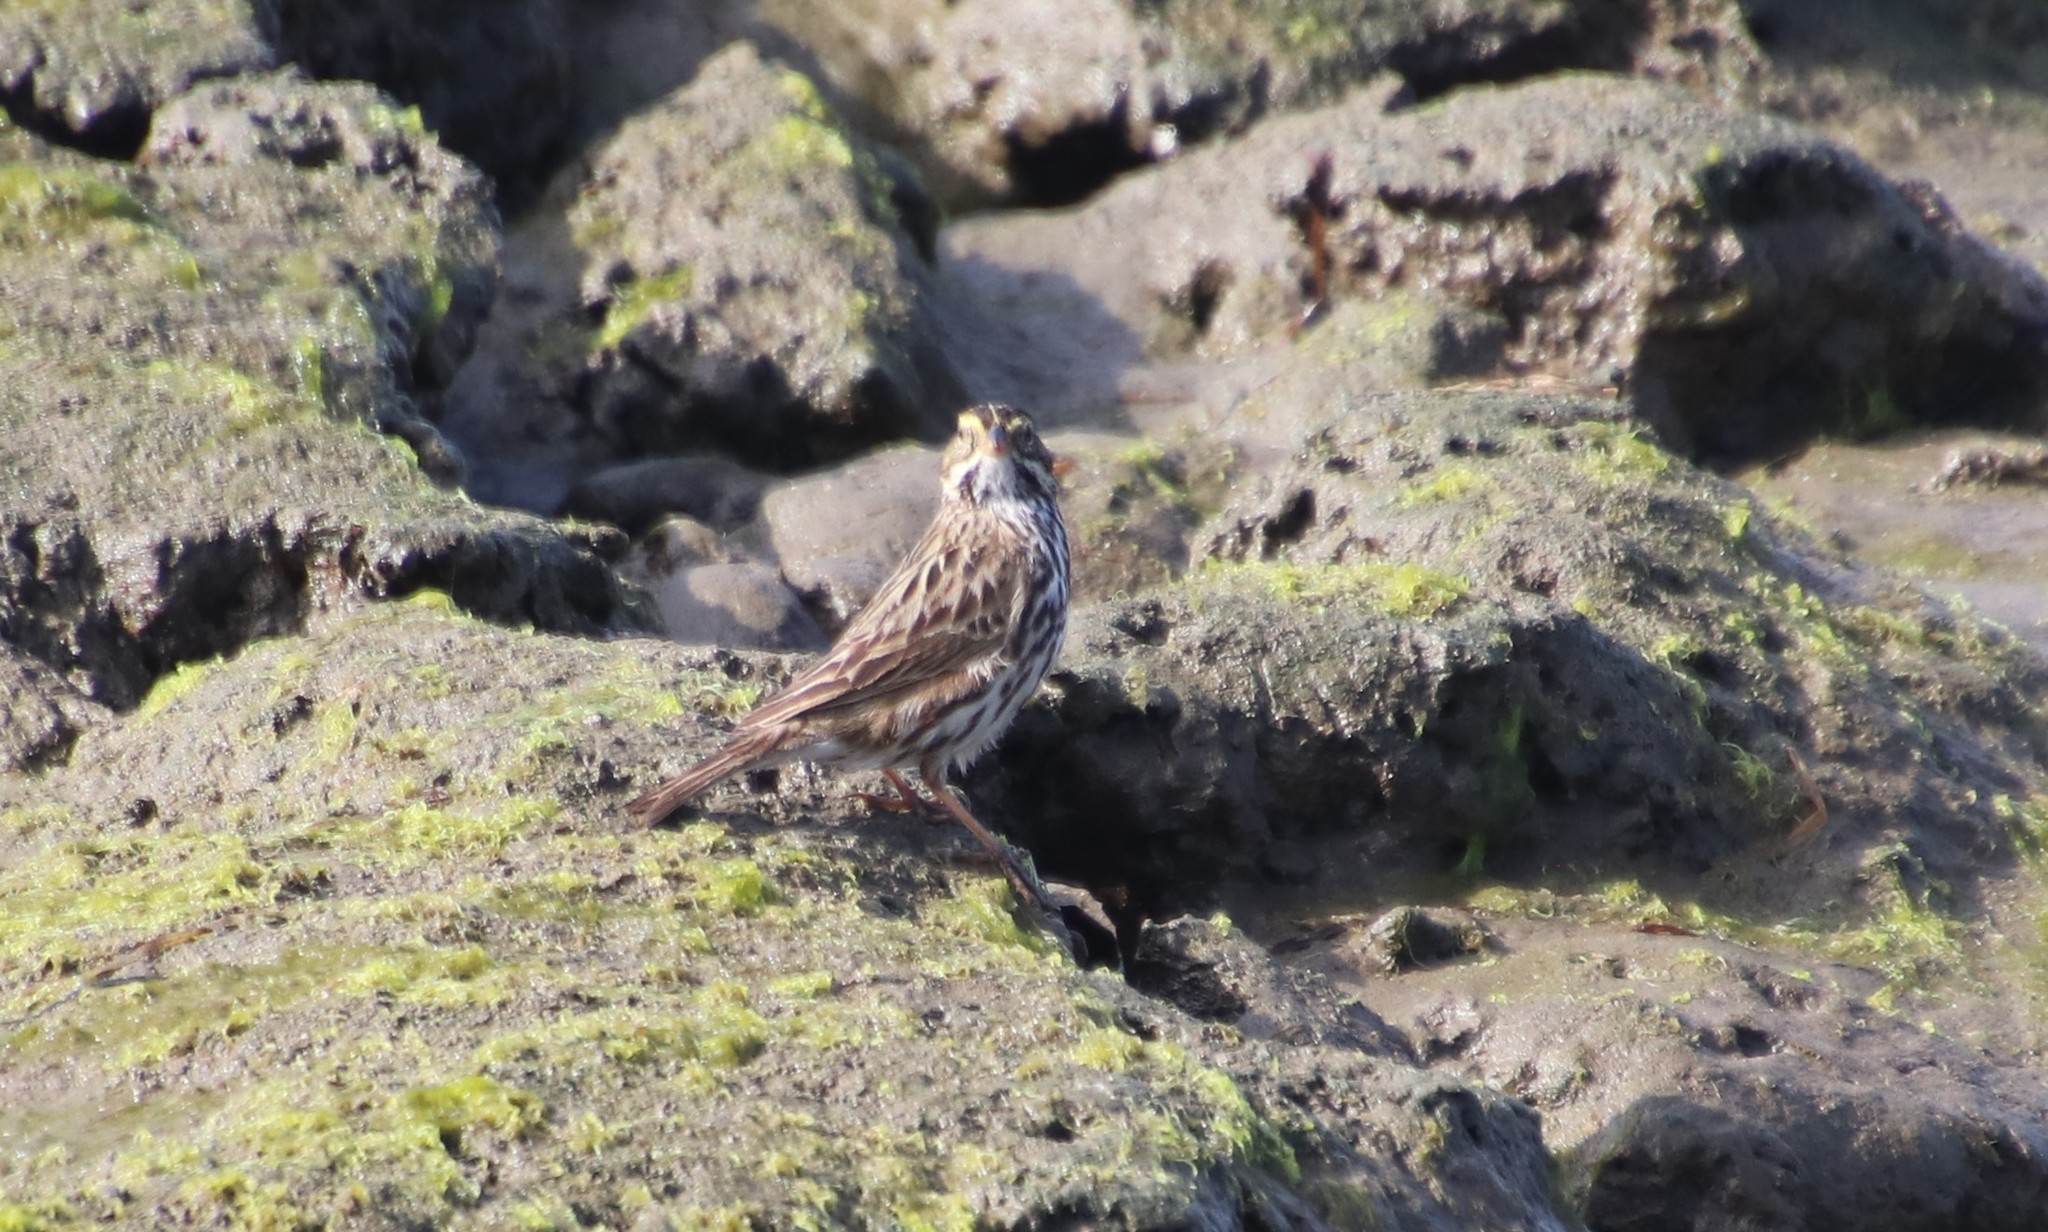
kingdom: Animalia
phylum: Chordata
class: Aves
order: Passeriformes
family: Passerellidae
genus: Passerculus
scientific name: Passerculus sandwichensis
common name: Savannah sparrow
